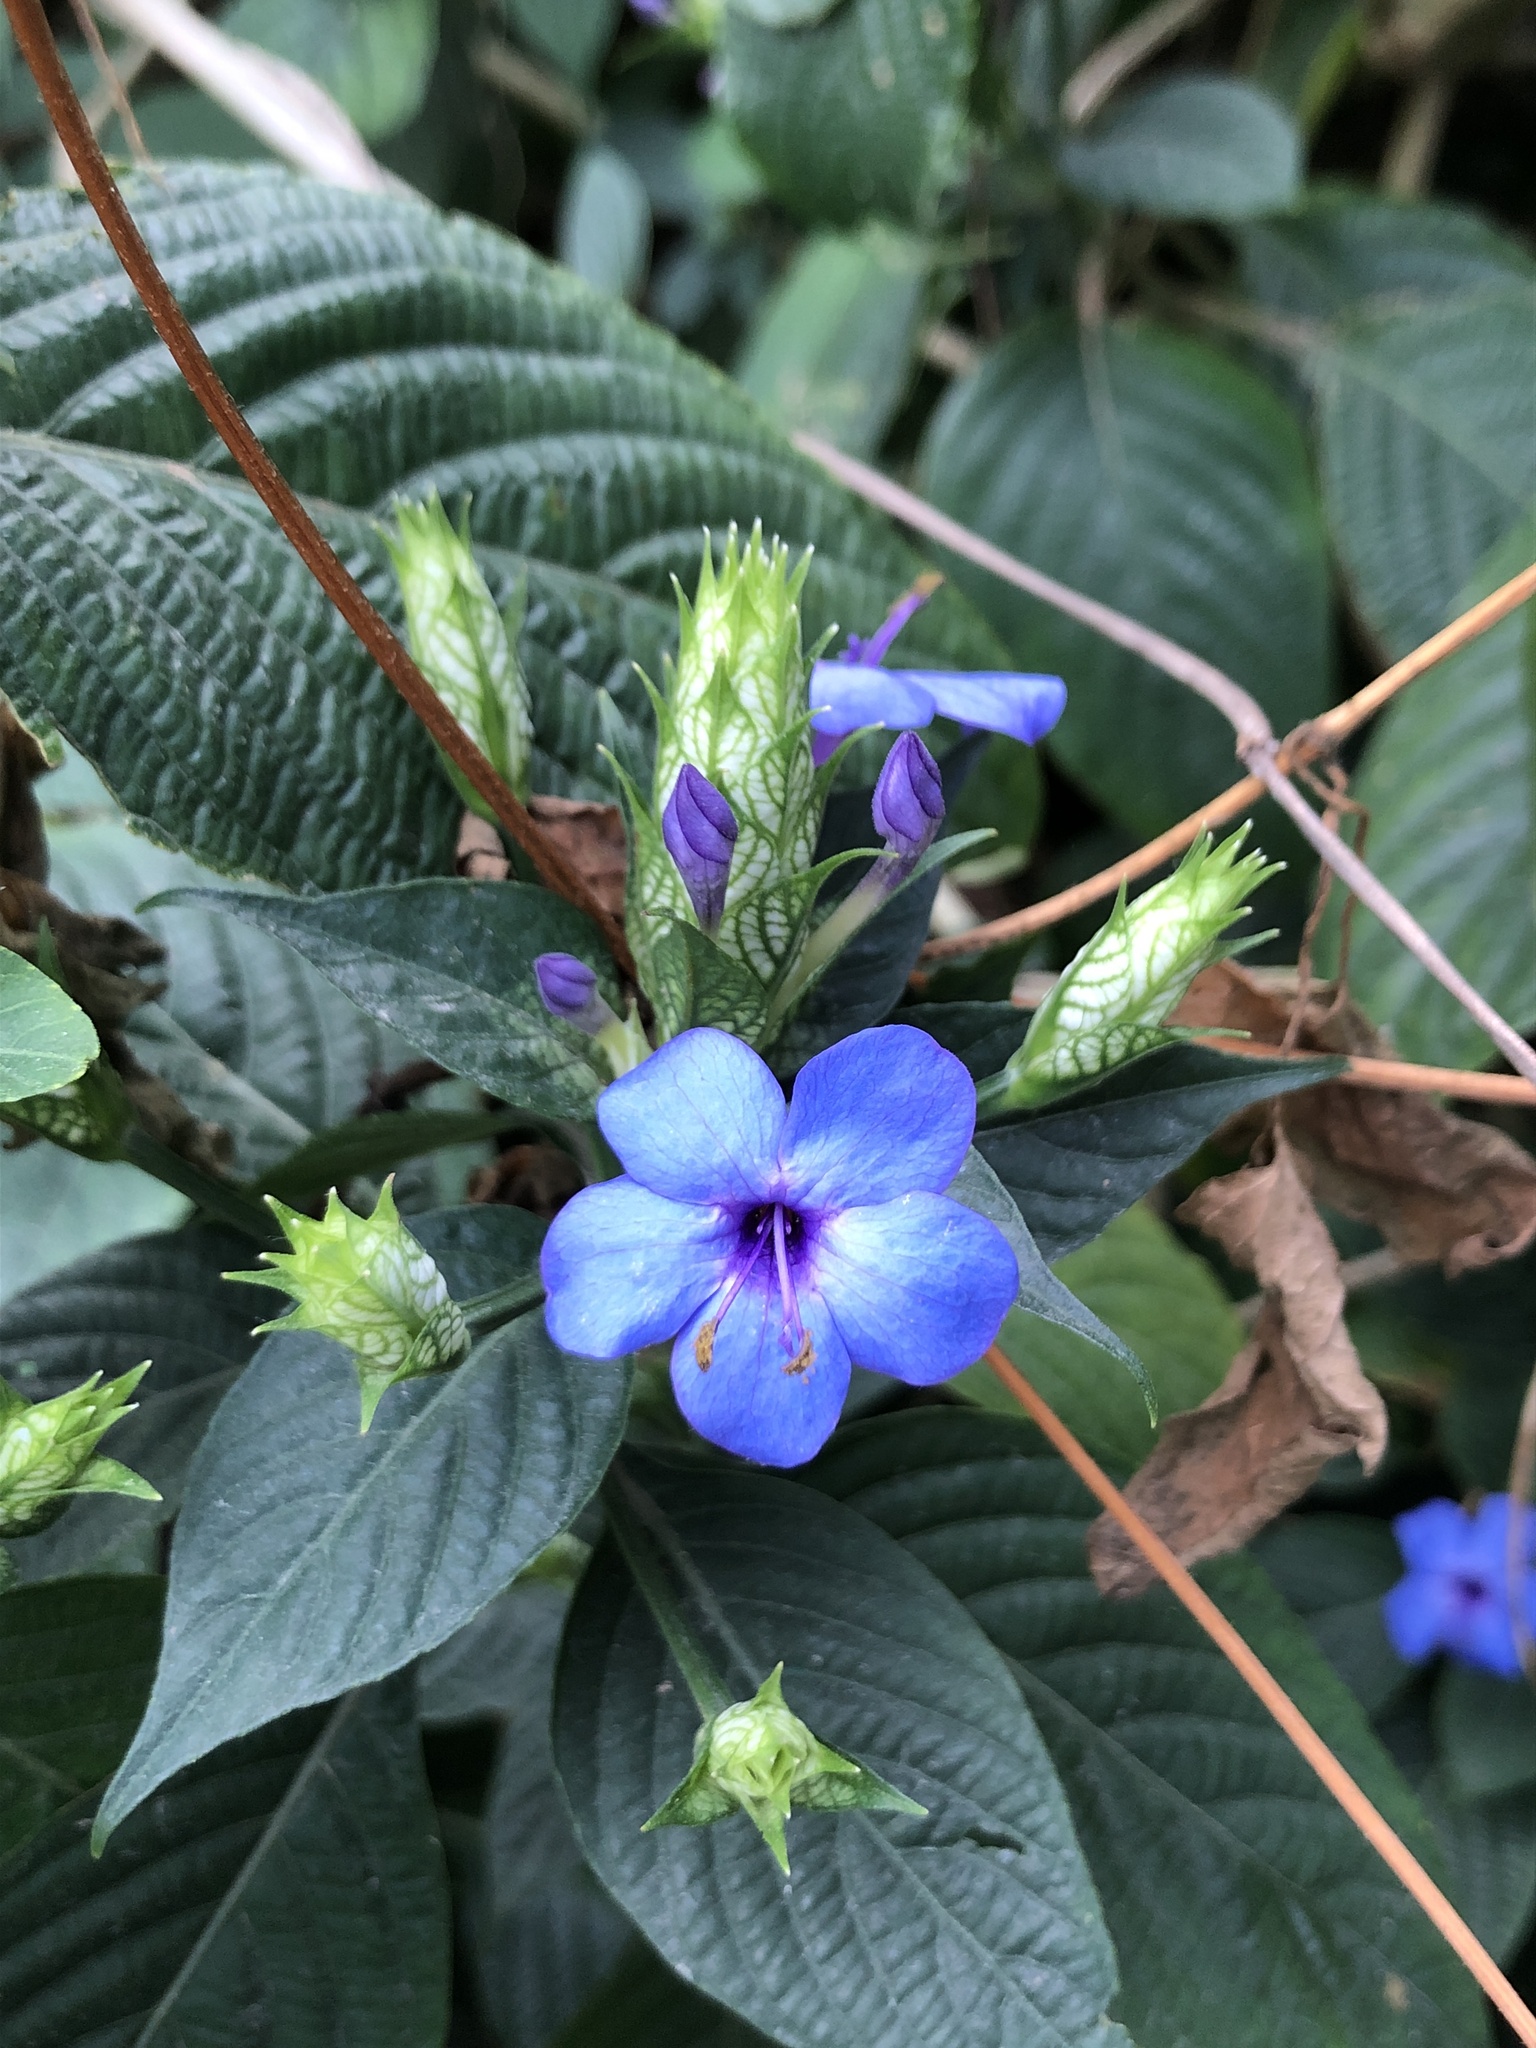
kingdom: Plantae
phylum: Tracheophyta
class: Magnoliopsida
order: Lamiales
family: Acanthaceae
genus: Eranthemum
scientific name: Eranthemum pulchellum
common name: Blue-sage
